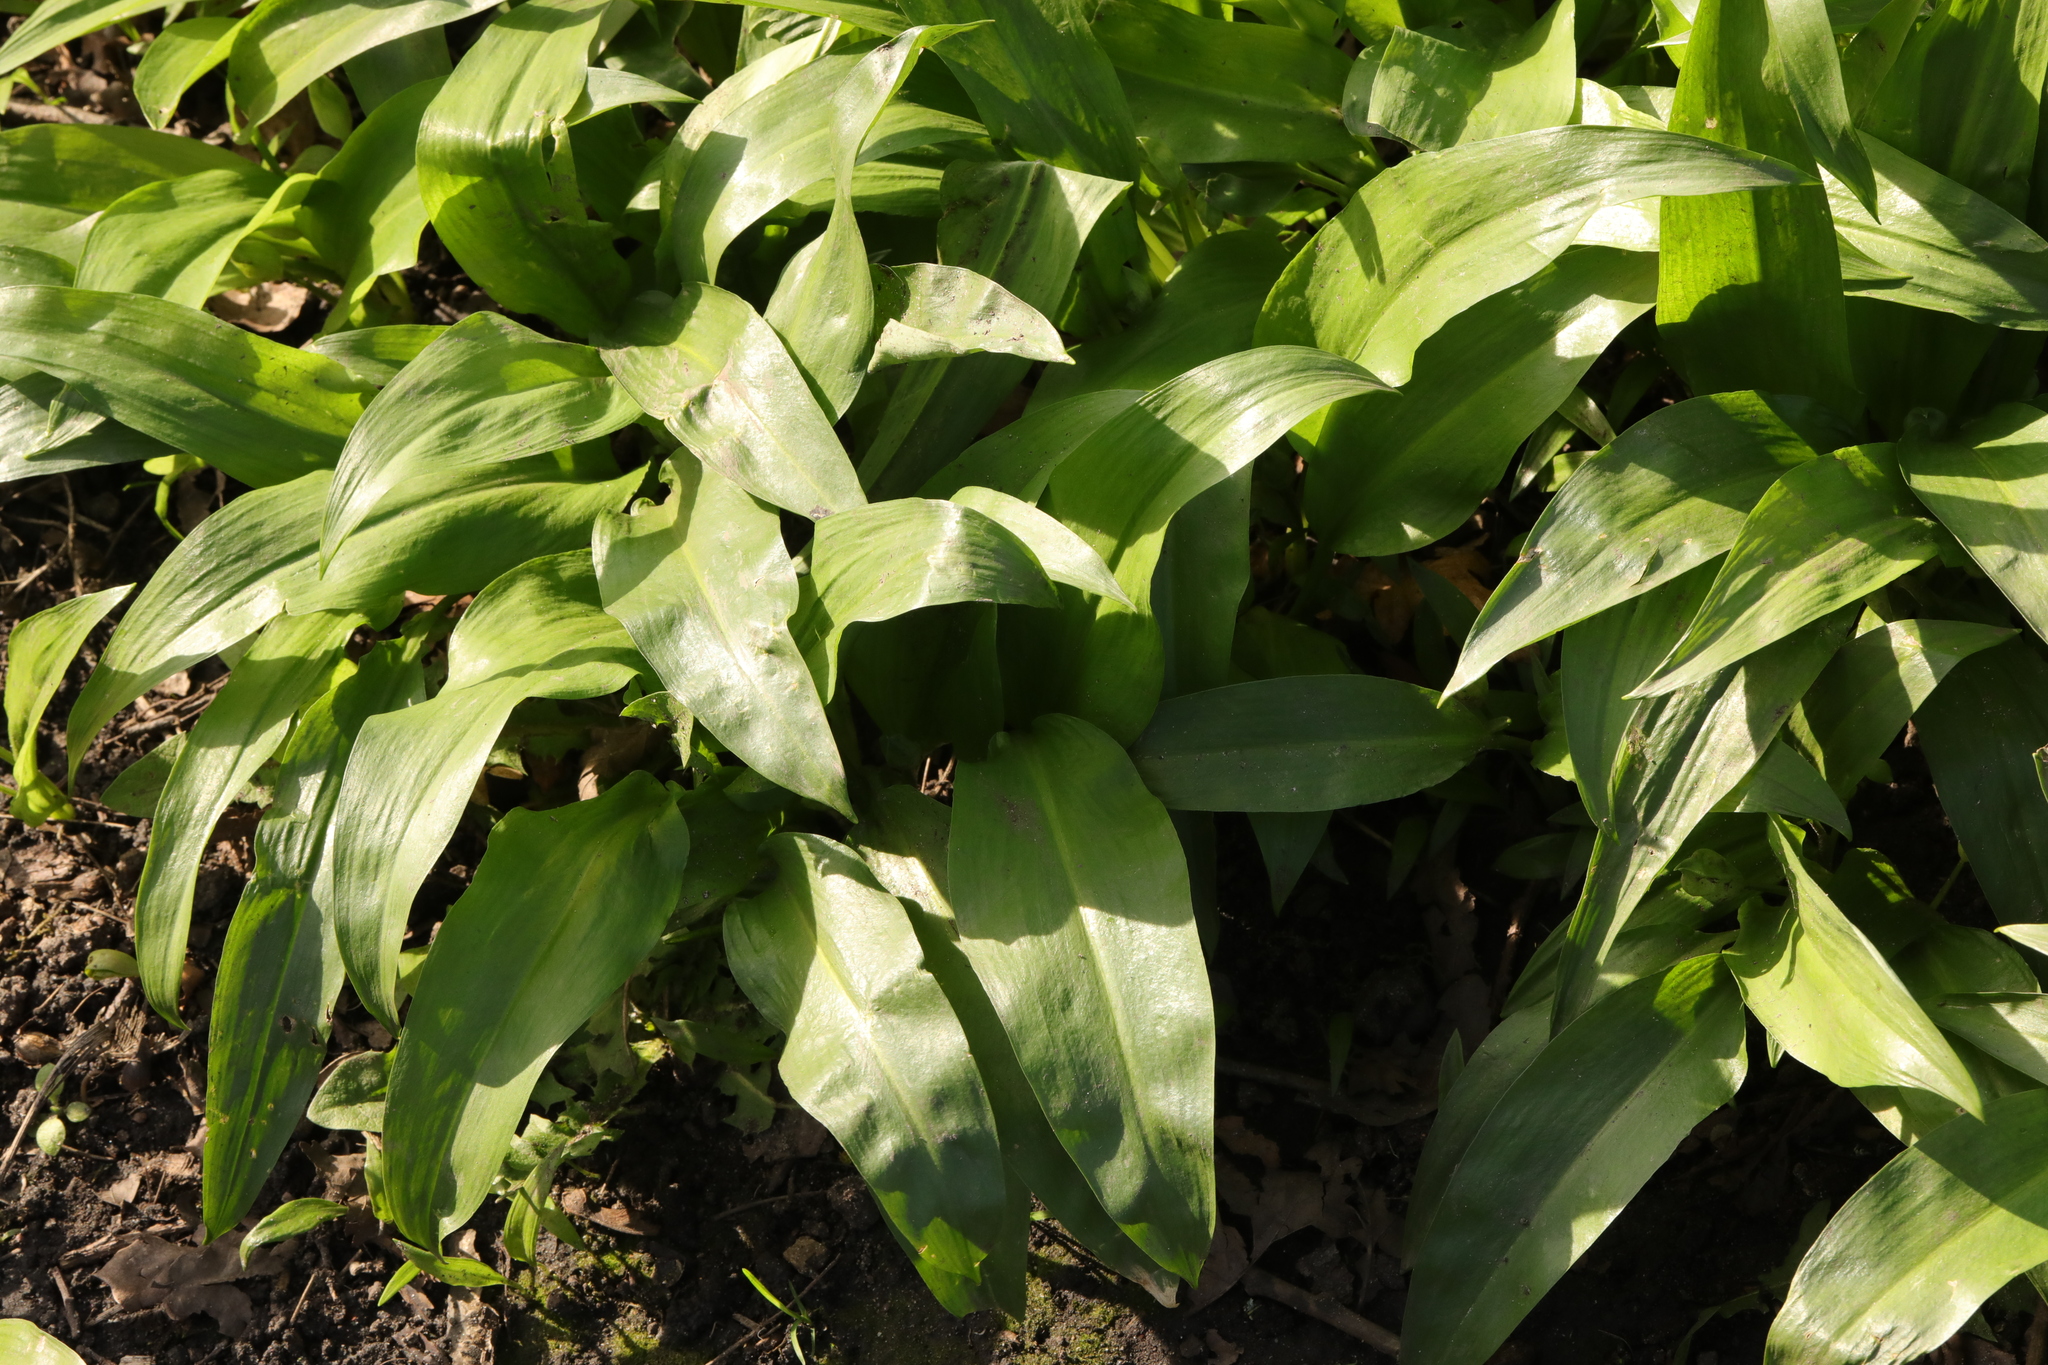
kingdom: Plantae
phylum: Tracheophyta
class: Liliopsida
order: Asparagales
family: Amaryllidaceae
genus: Allium
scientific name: Allium ursinum
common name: Ramsons
